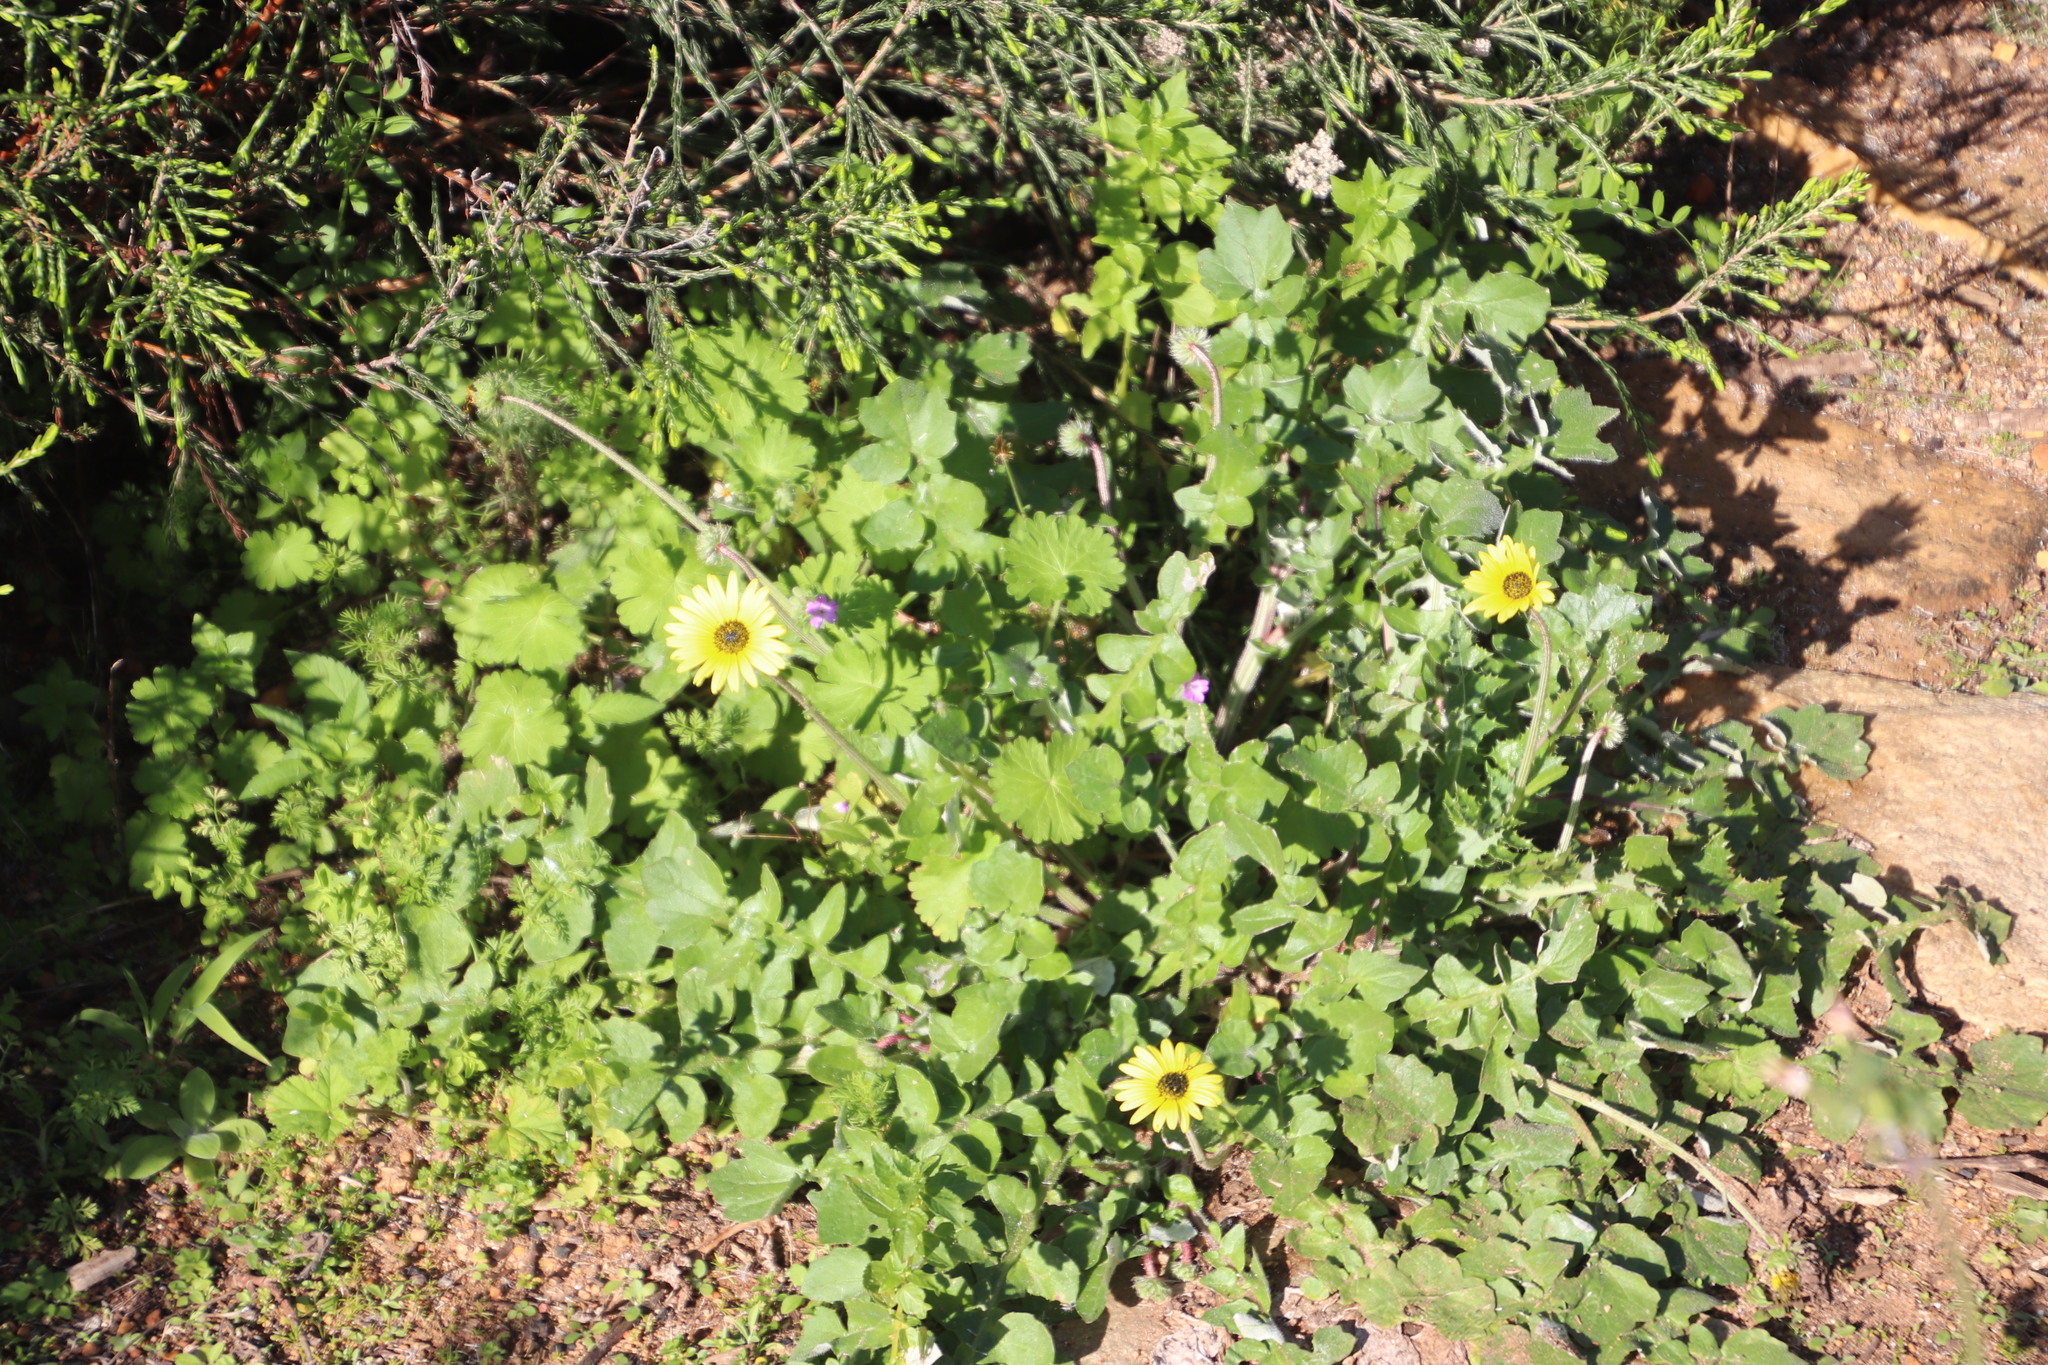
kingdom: Plantae
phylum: Tracheophyta
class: Magnoliopsida
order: Asterales
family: Asteraceae
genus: Arctotheca
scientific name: Arctotheca calendula
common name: Capeweed
